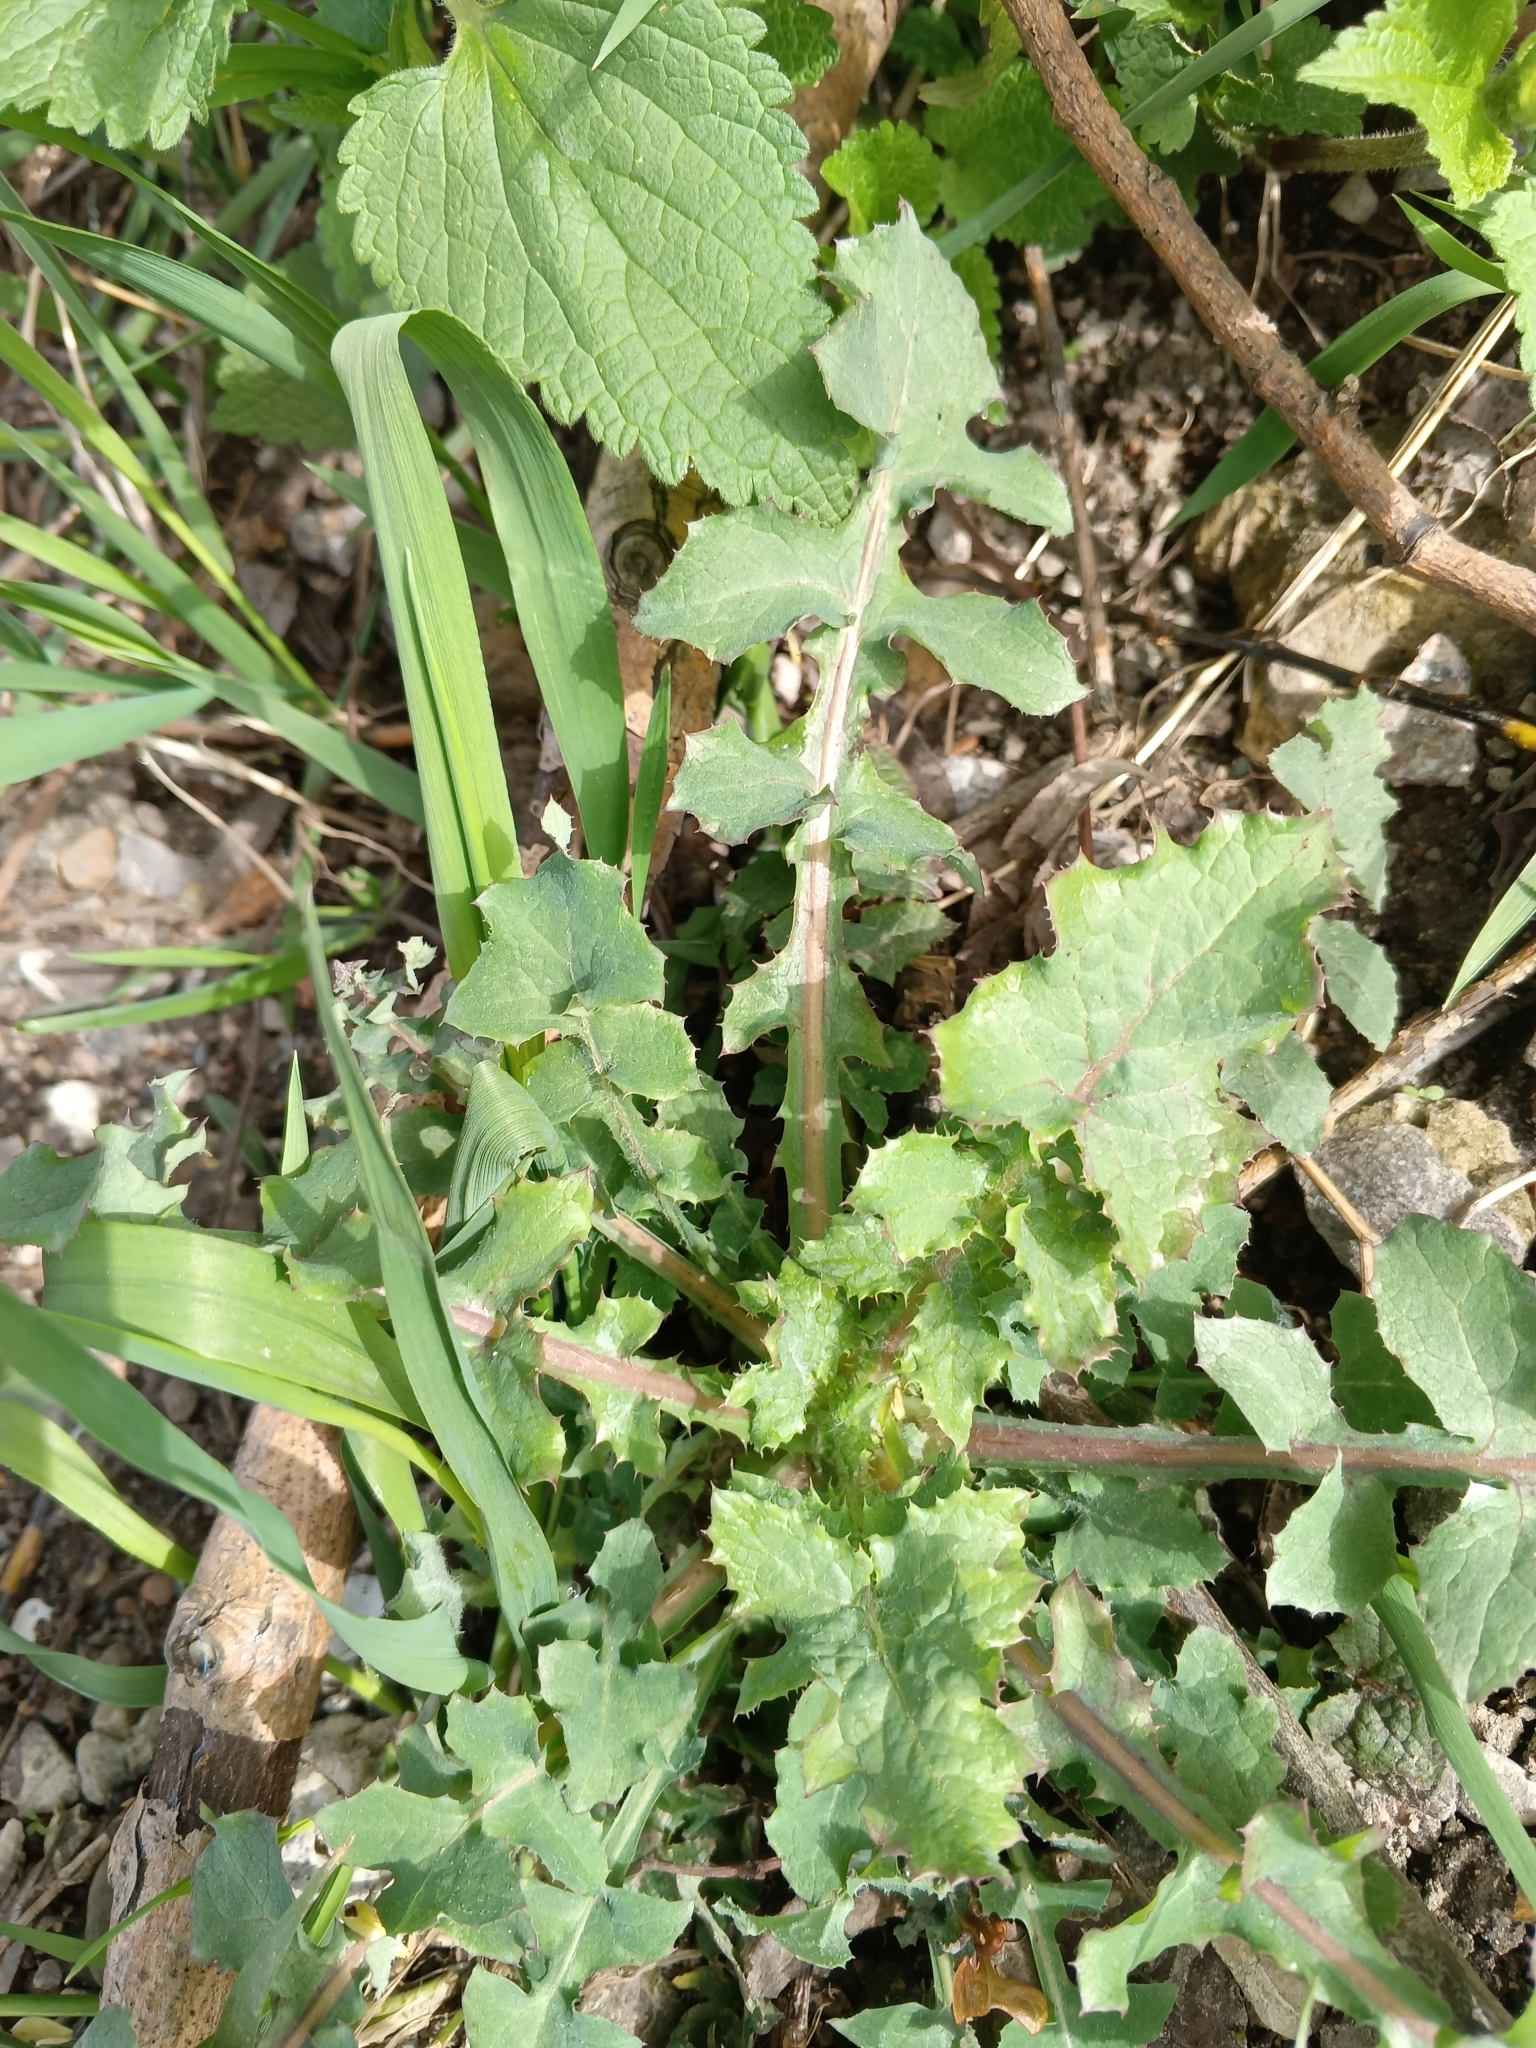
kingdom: Plantae
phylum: Tracheophyta
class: Magnoliopsida
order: Asterales
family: Asteraceae
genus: Sonchus
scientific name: Sonchus oleraceus
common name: Common sowthistle
